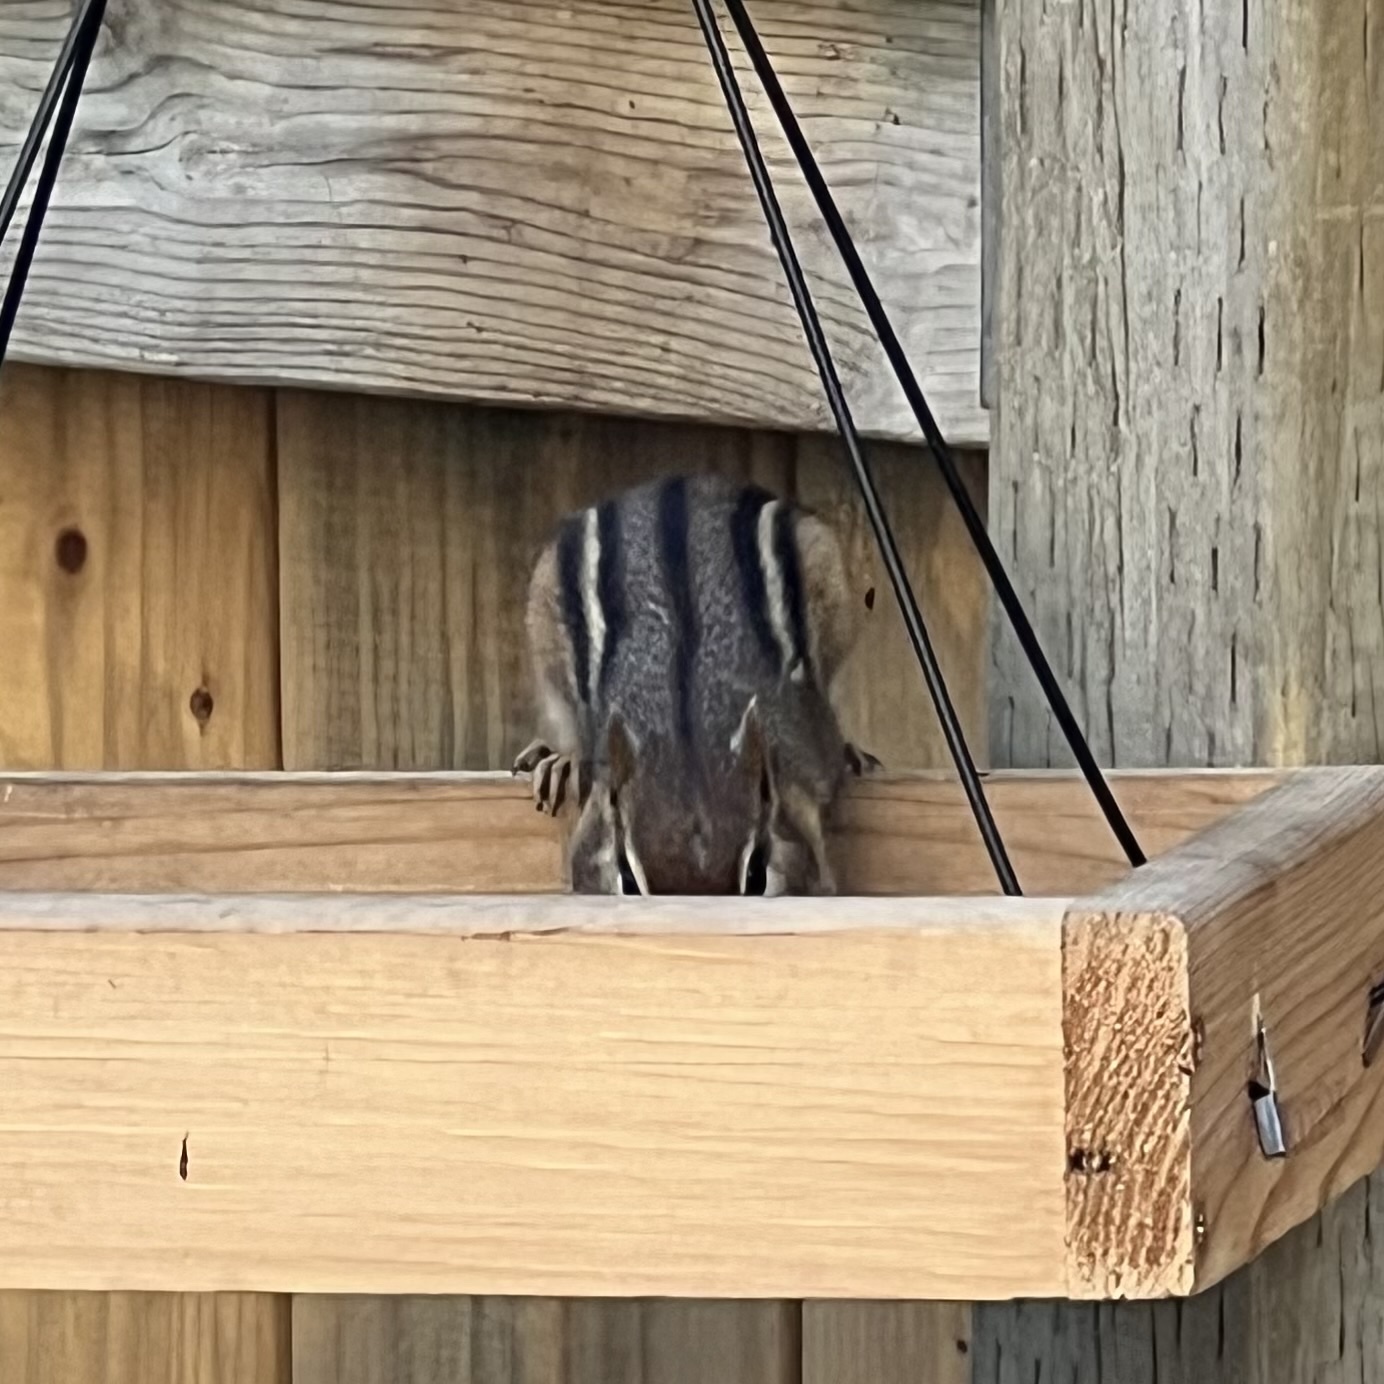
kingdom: Animalia
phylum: Chordata
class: Mammalia
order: Rodentia
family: Sciuridae
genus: Tamias
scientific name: Tamias striatus
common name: Eastern chipmunk
